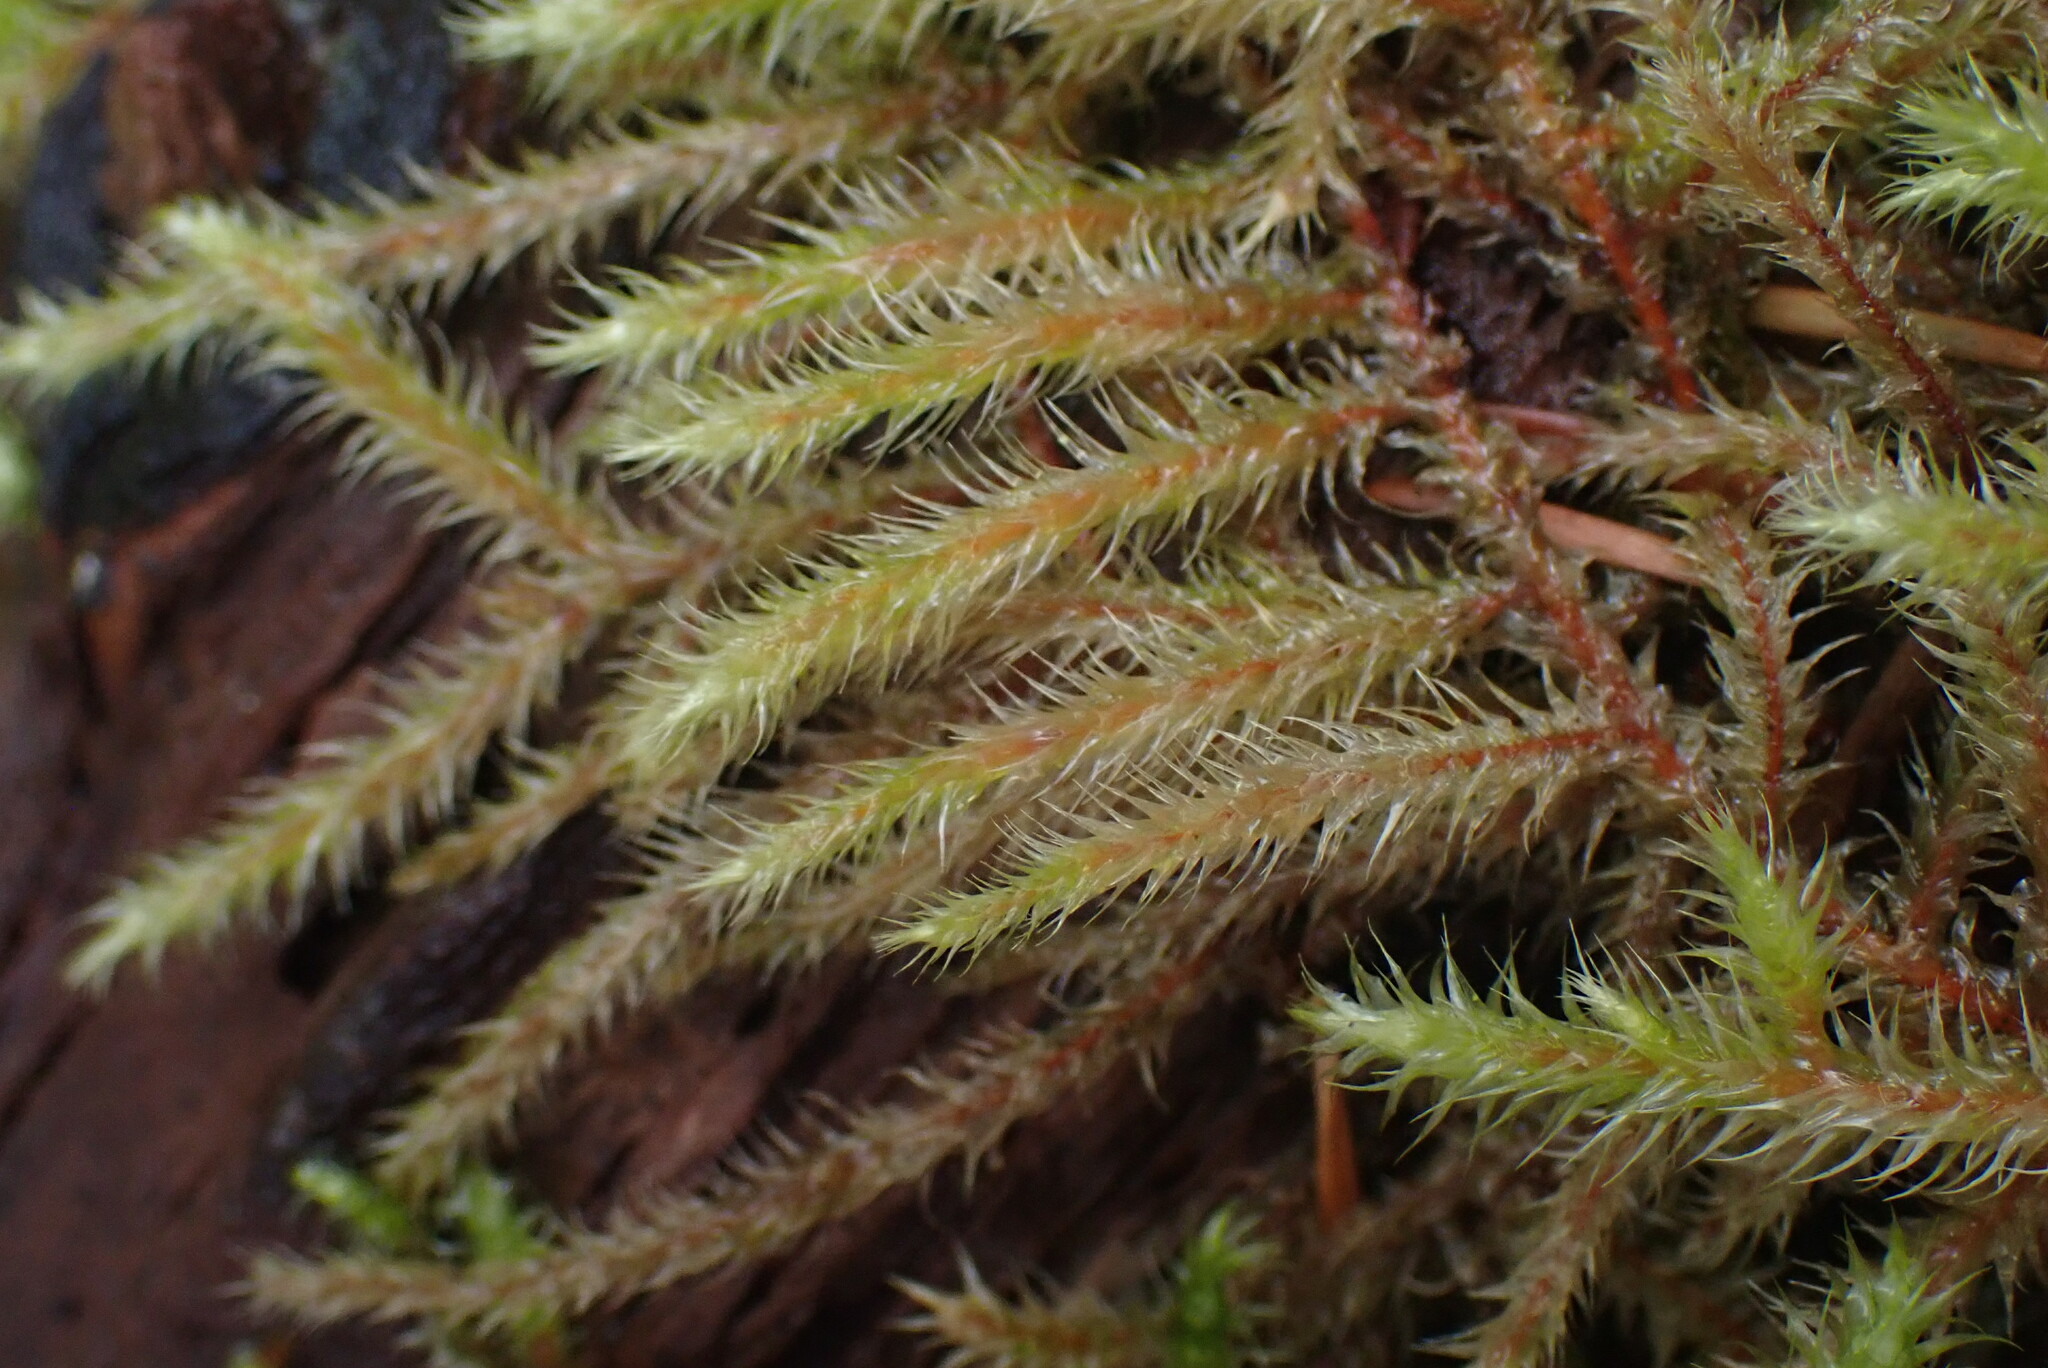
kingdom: Plantae
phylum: Bryophyta
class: Bryopsida
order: Hypnales
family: Hylocomiaceae
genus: Rhytidiadelphus
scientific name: Rhytidiadelphus loreus
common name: Lanky moss
